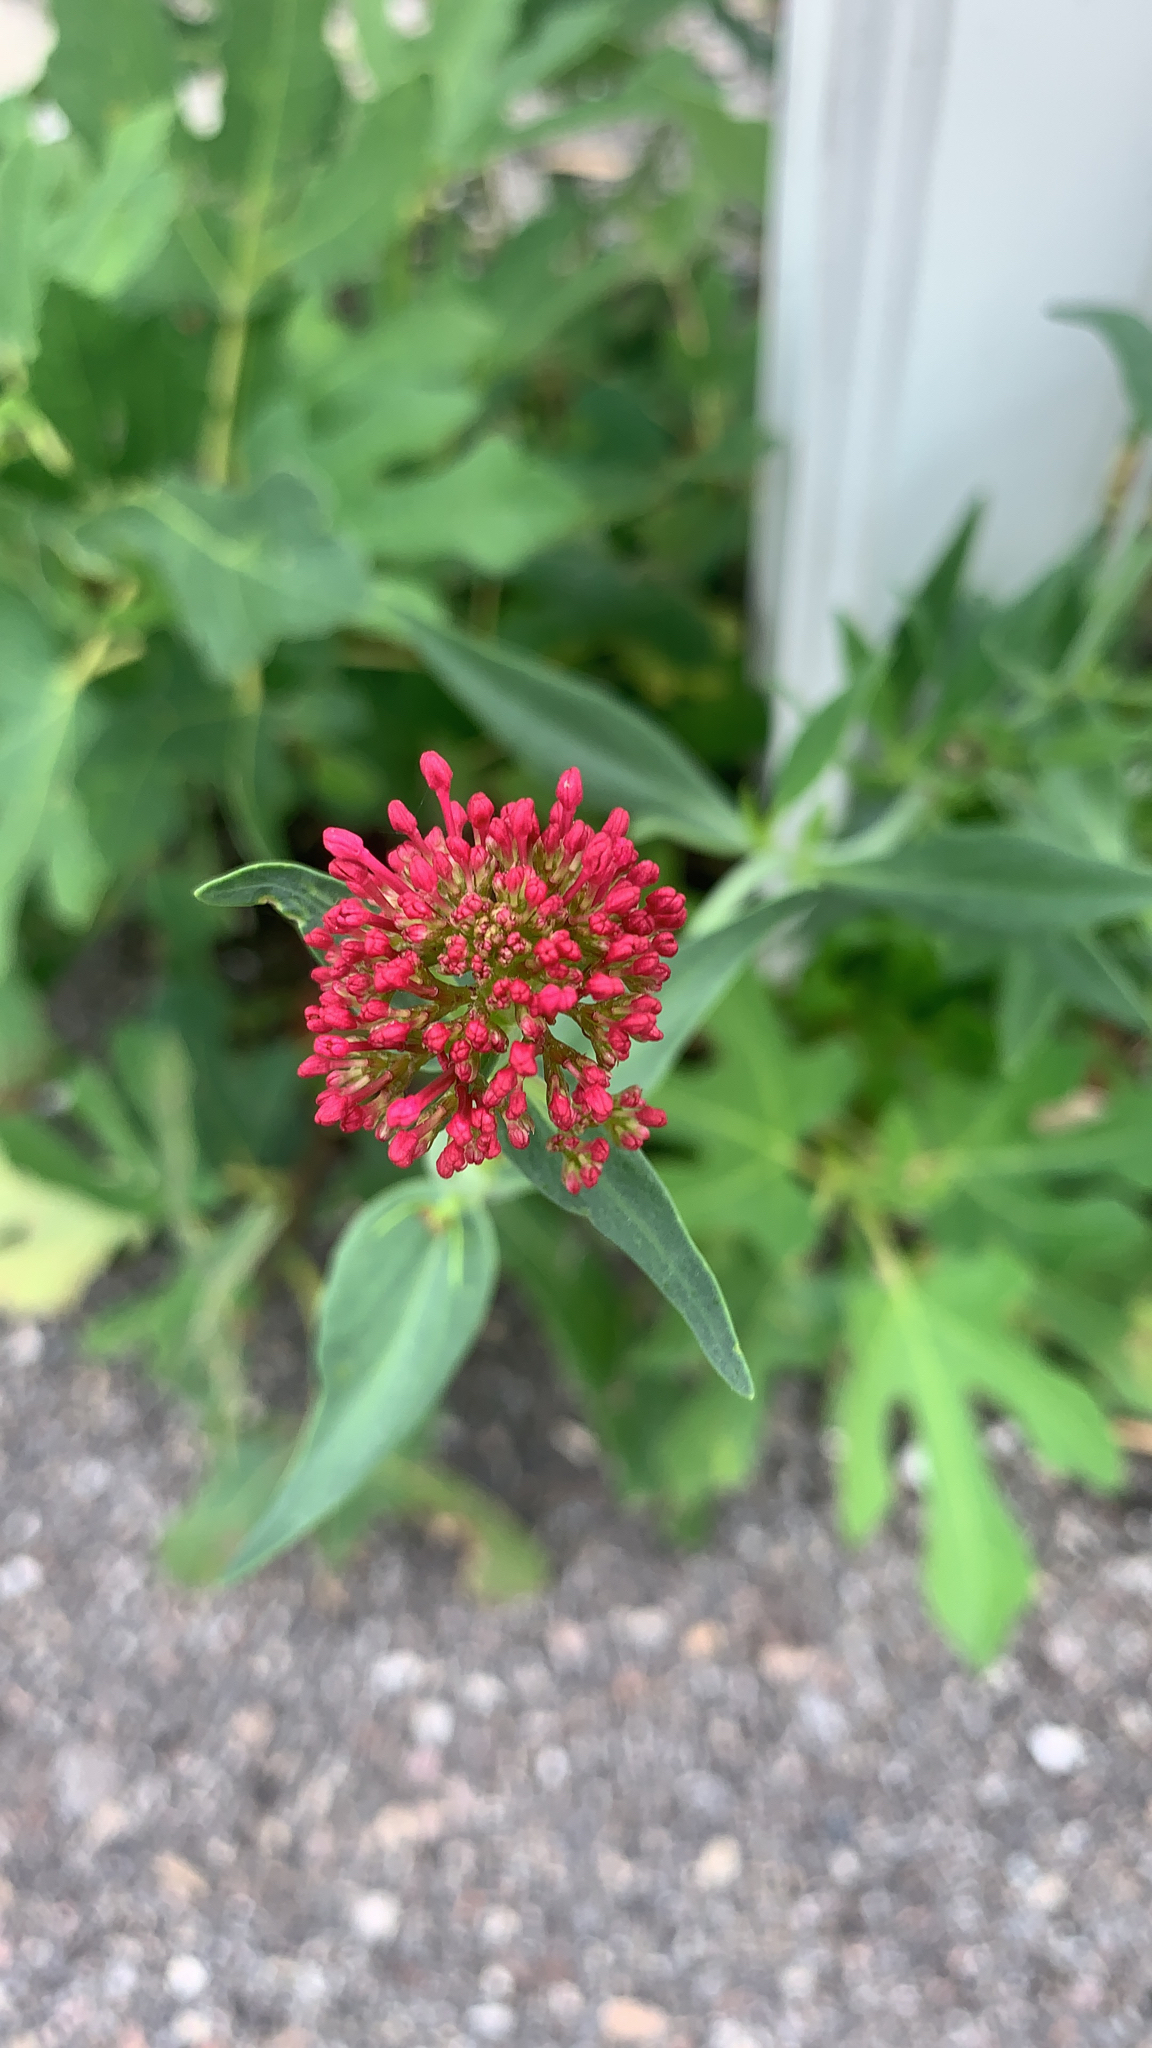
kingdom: Plantae
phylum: Tracheophyta
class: Magnoliopsida
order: Dipsacales
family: Caprifoliaceae
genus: Centranthus
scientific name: Centranthus ruber
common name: Red valerian
